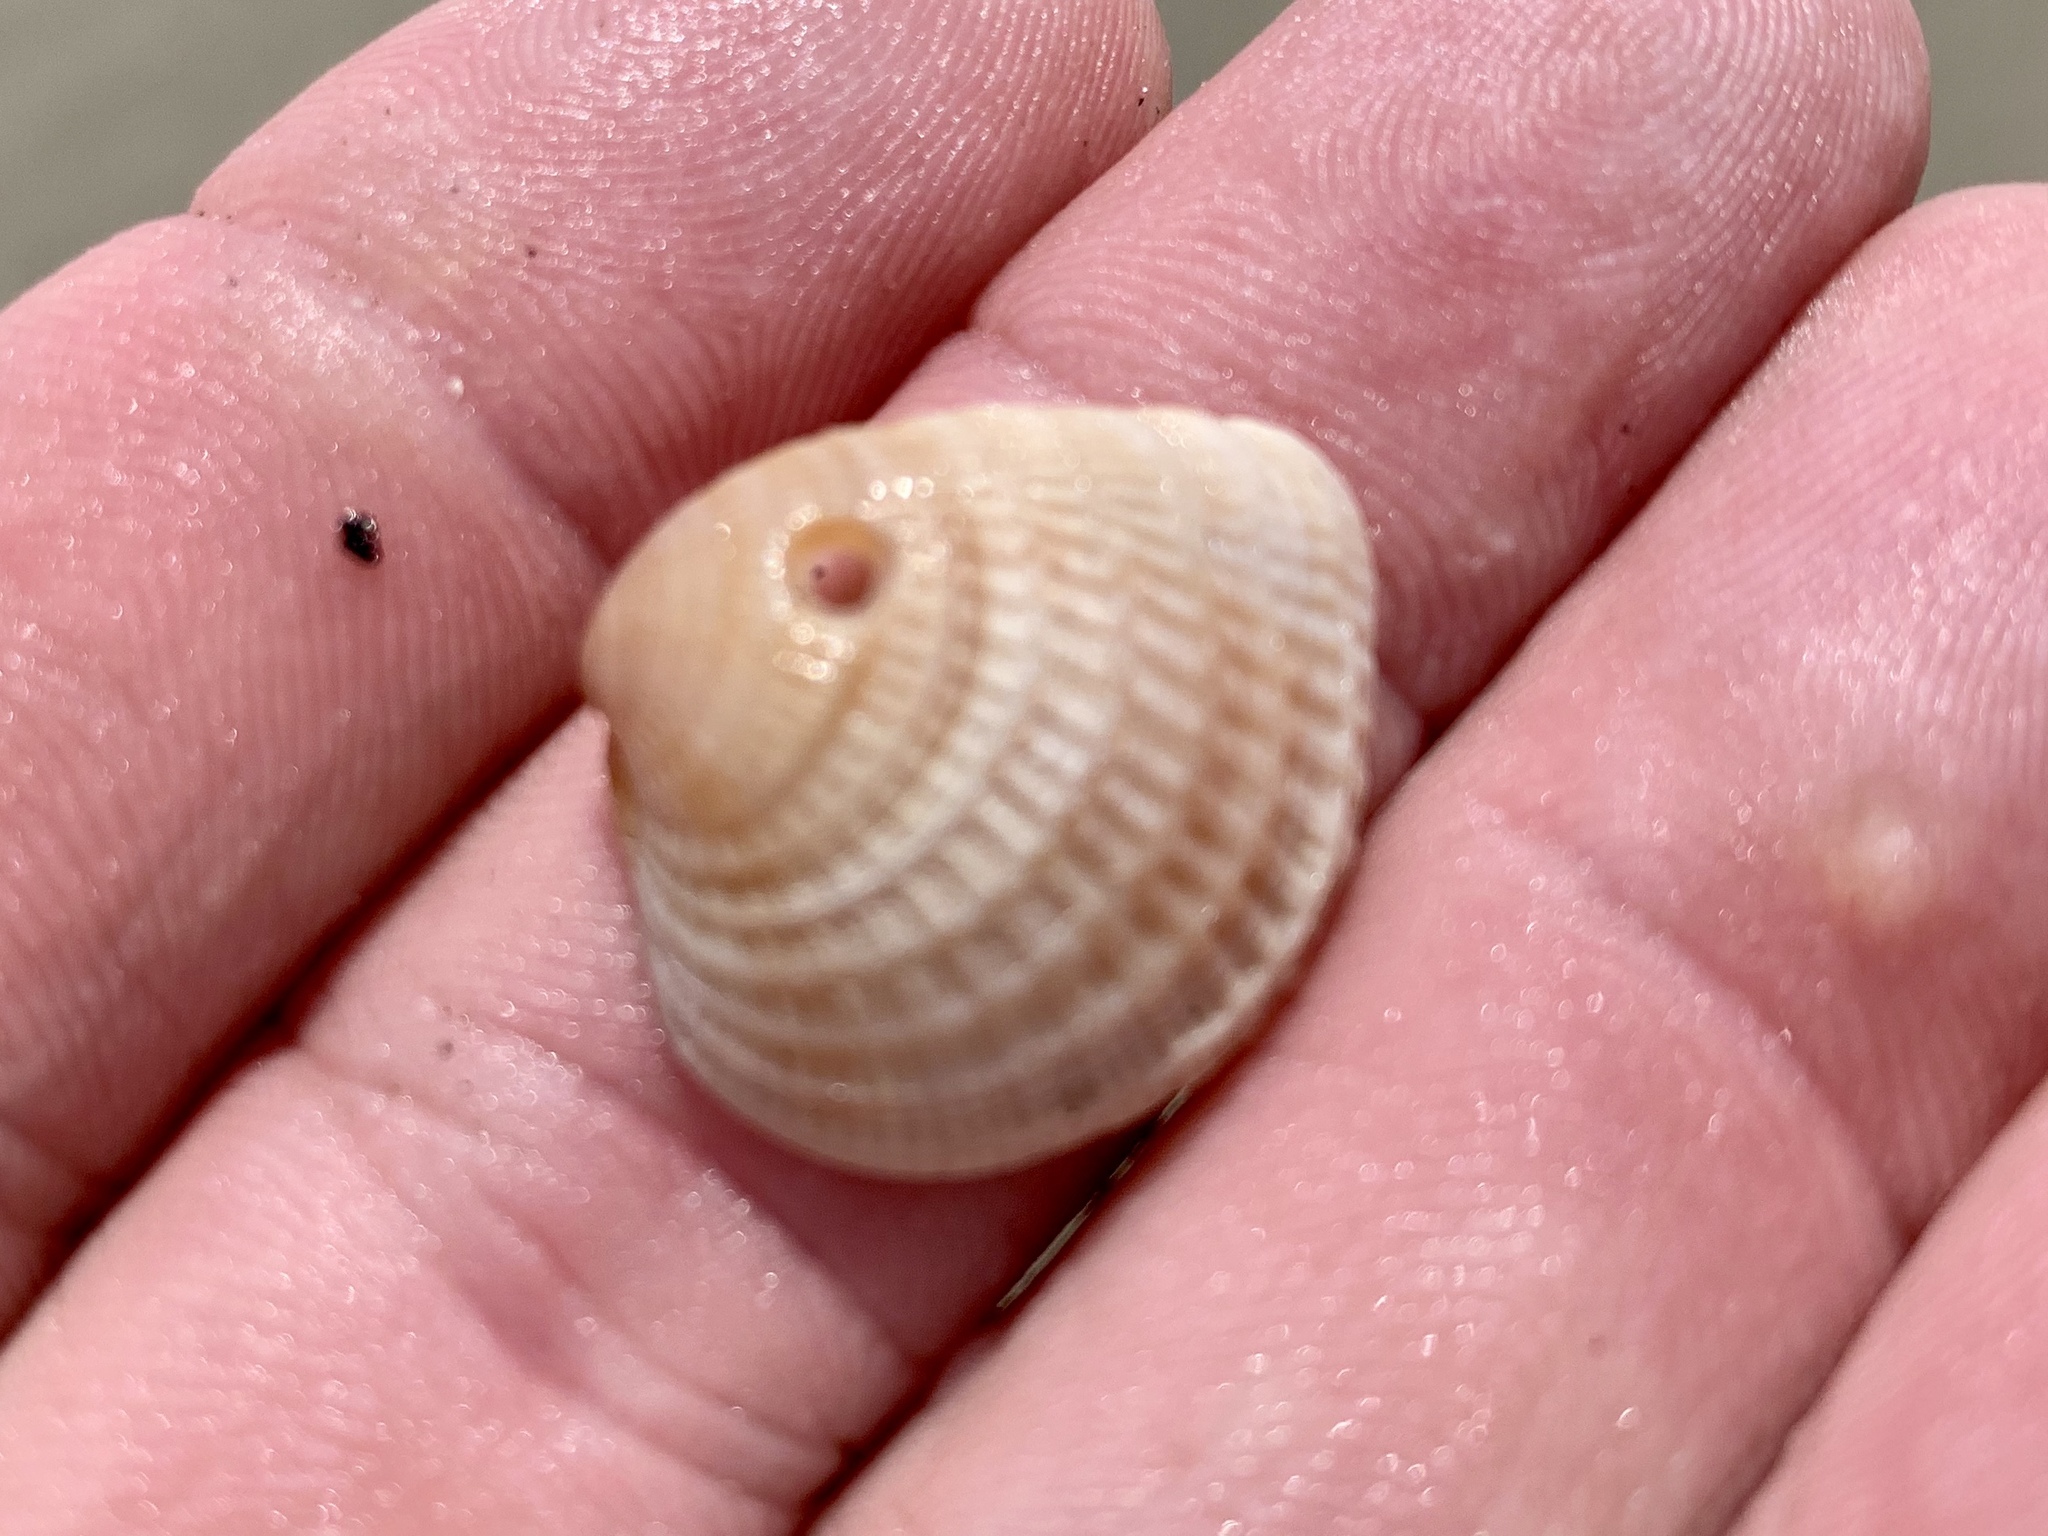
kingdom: Animalia
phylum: Mollusca
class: Bivalvia
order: Venerida
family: Veneridae
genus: Chione
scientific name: Chione elevata
